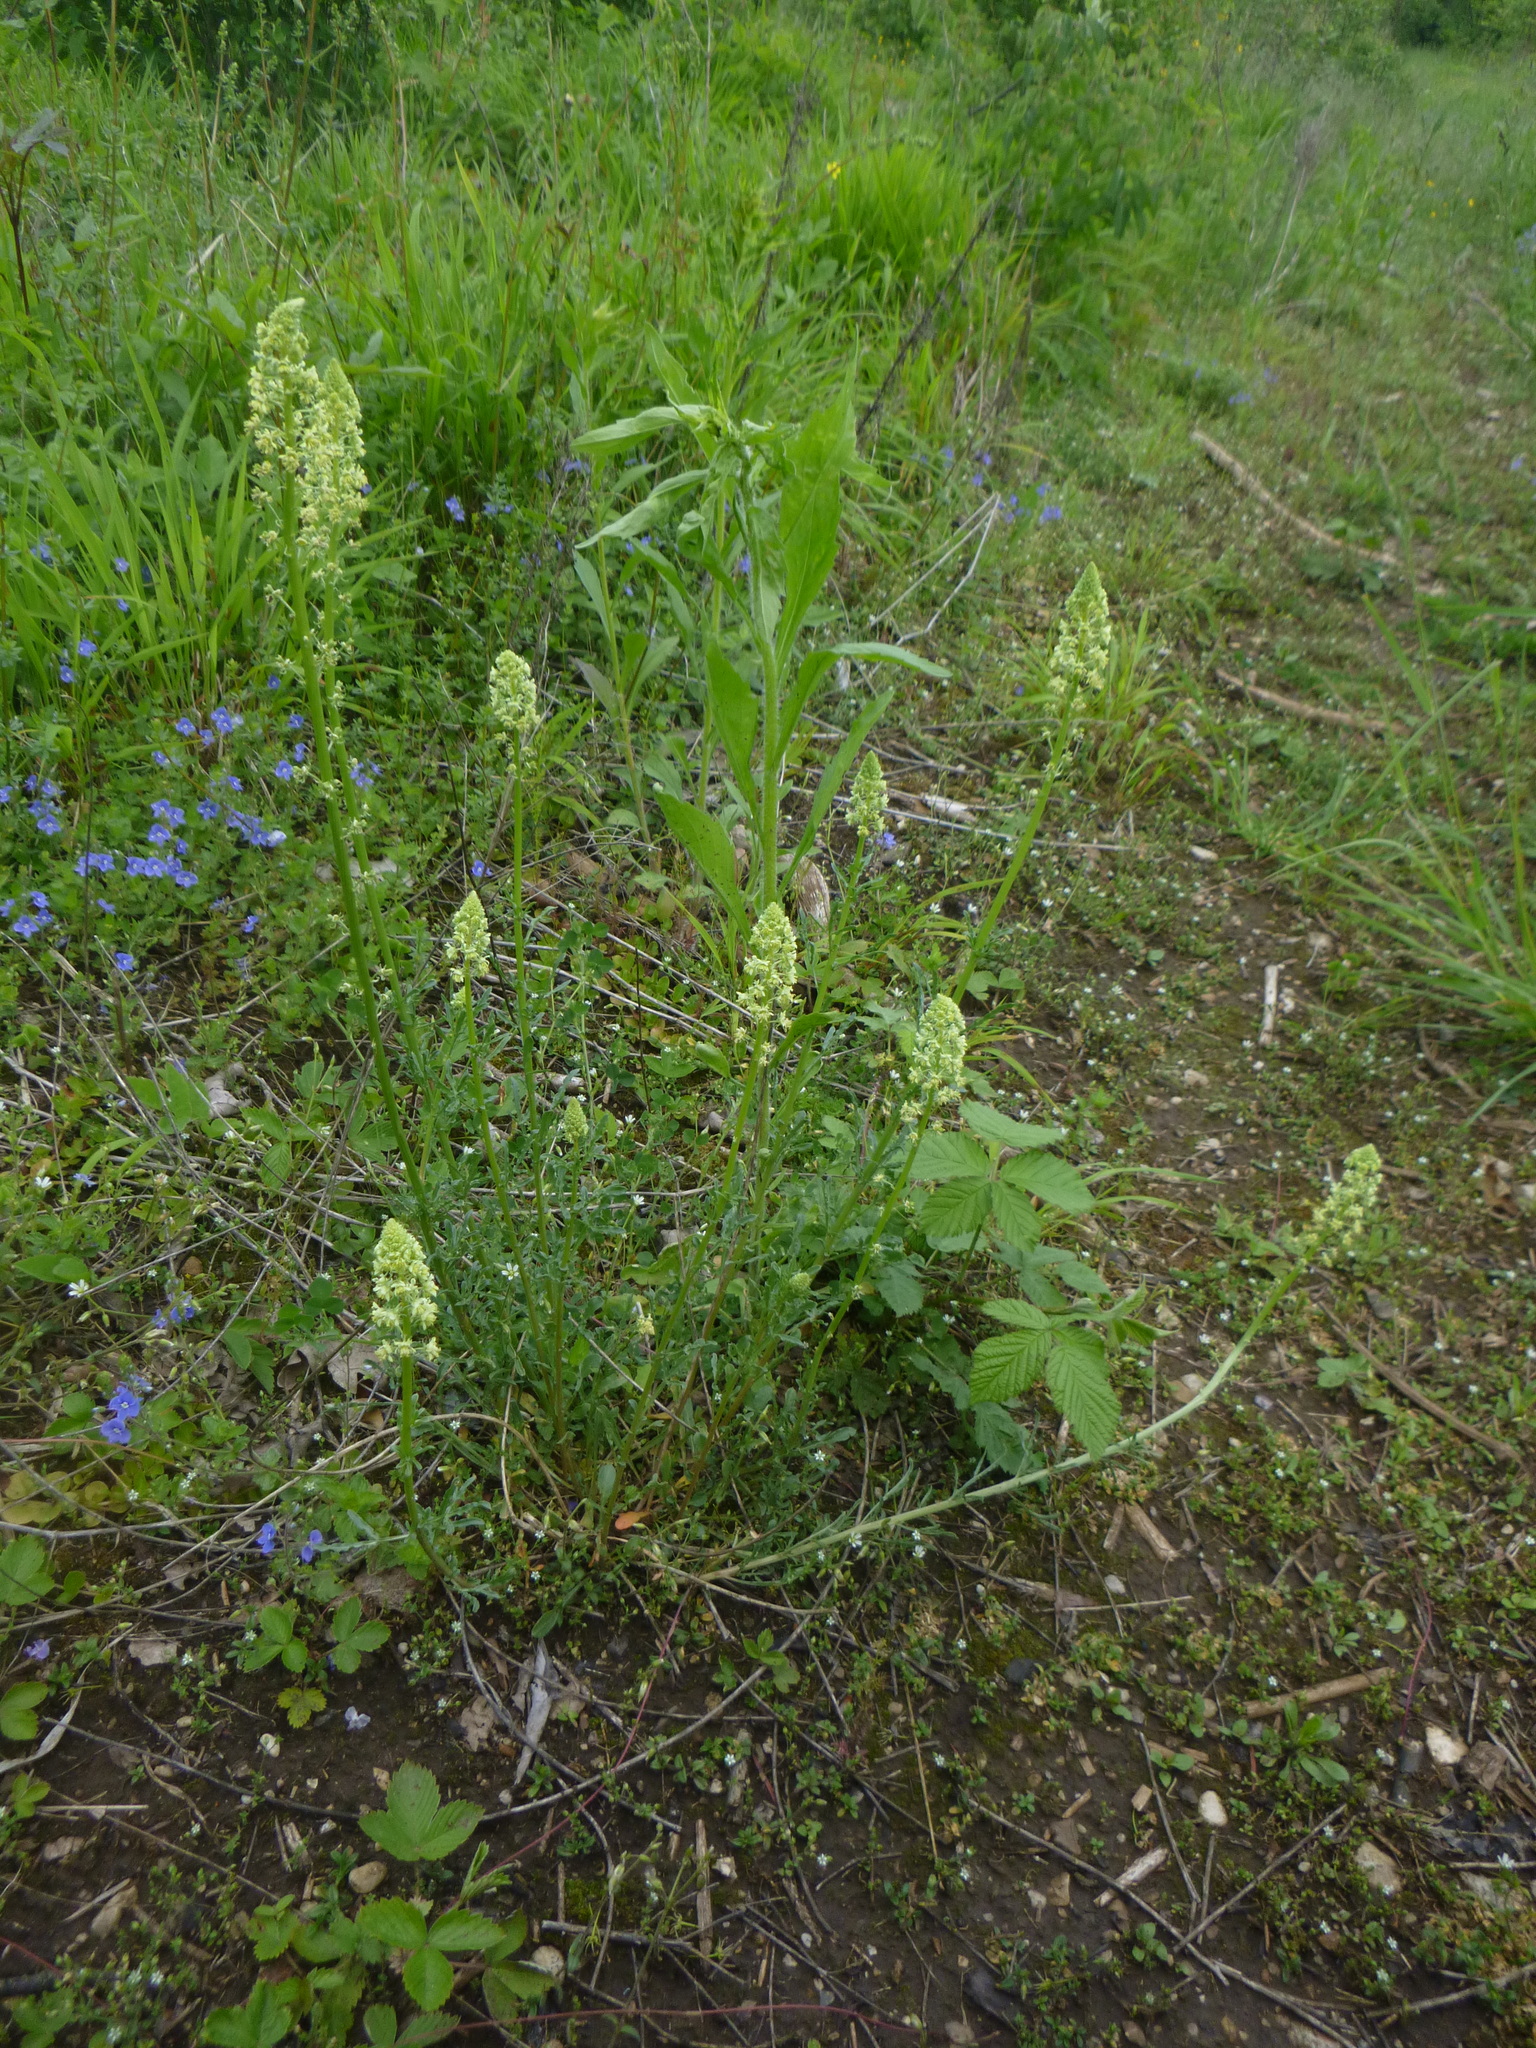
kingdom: Plantae
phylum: Tracheophyta
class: Magnoliopsida
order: Brassicales
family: Resedaceae
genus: Reseda
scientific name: Reseda lutea
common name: Wild mignonette
